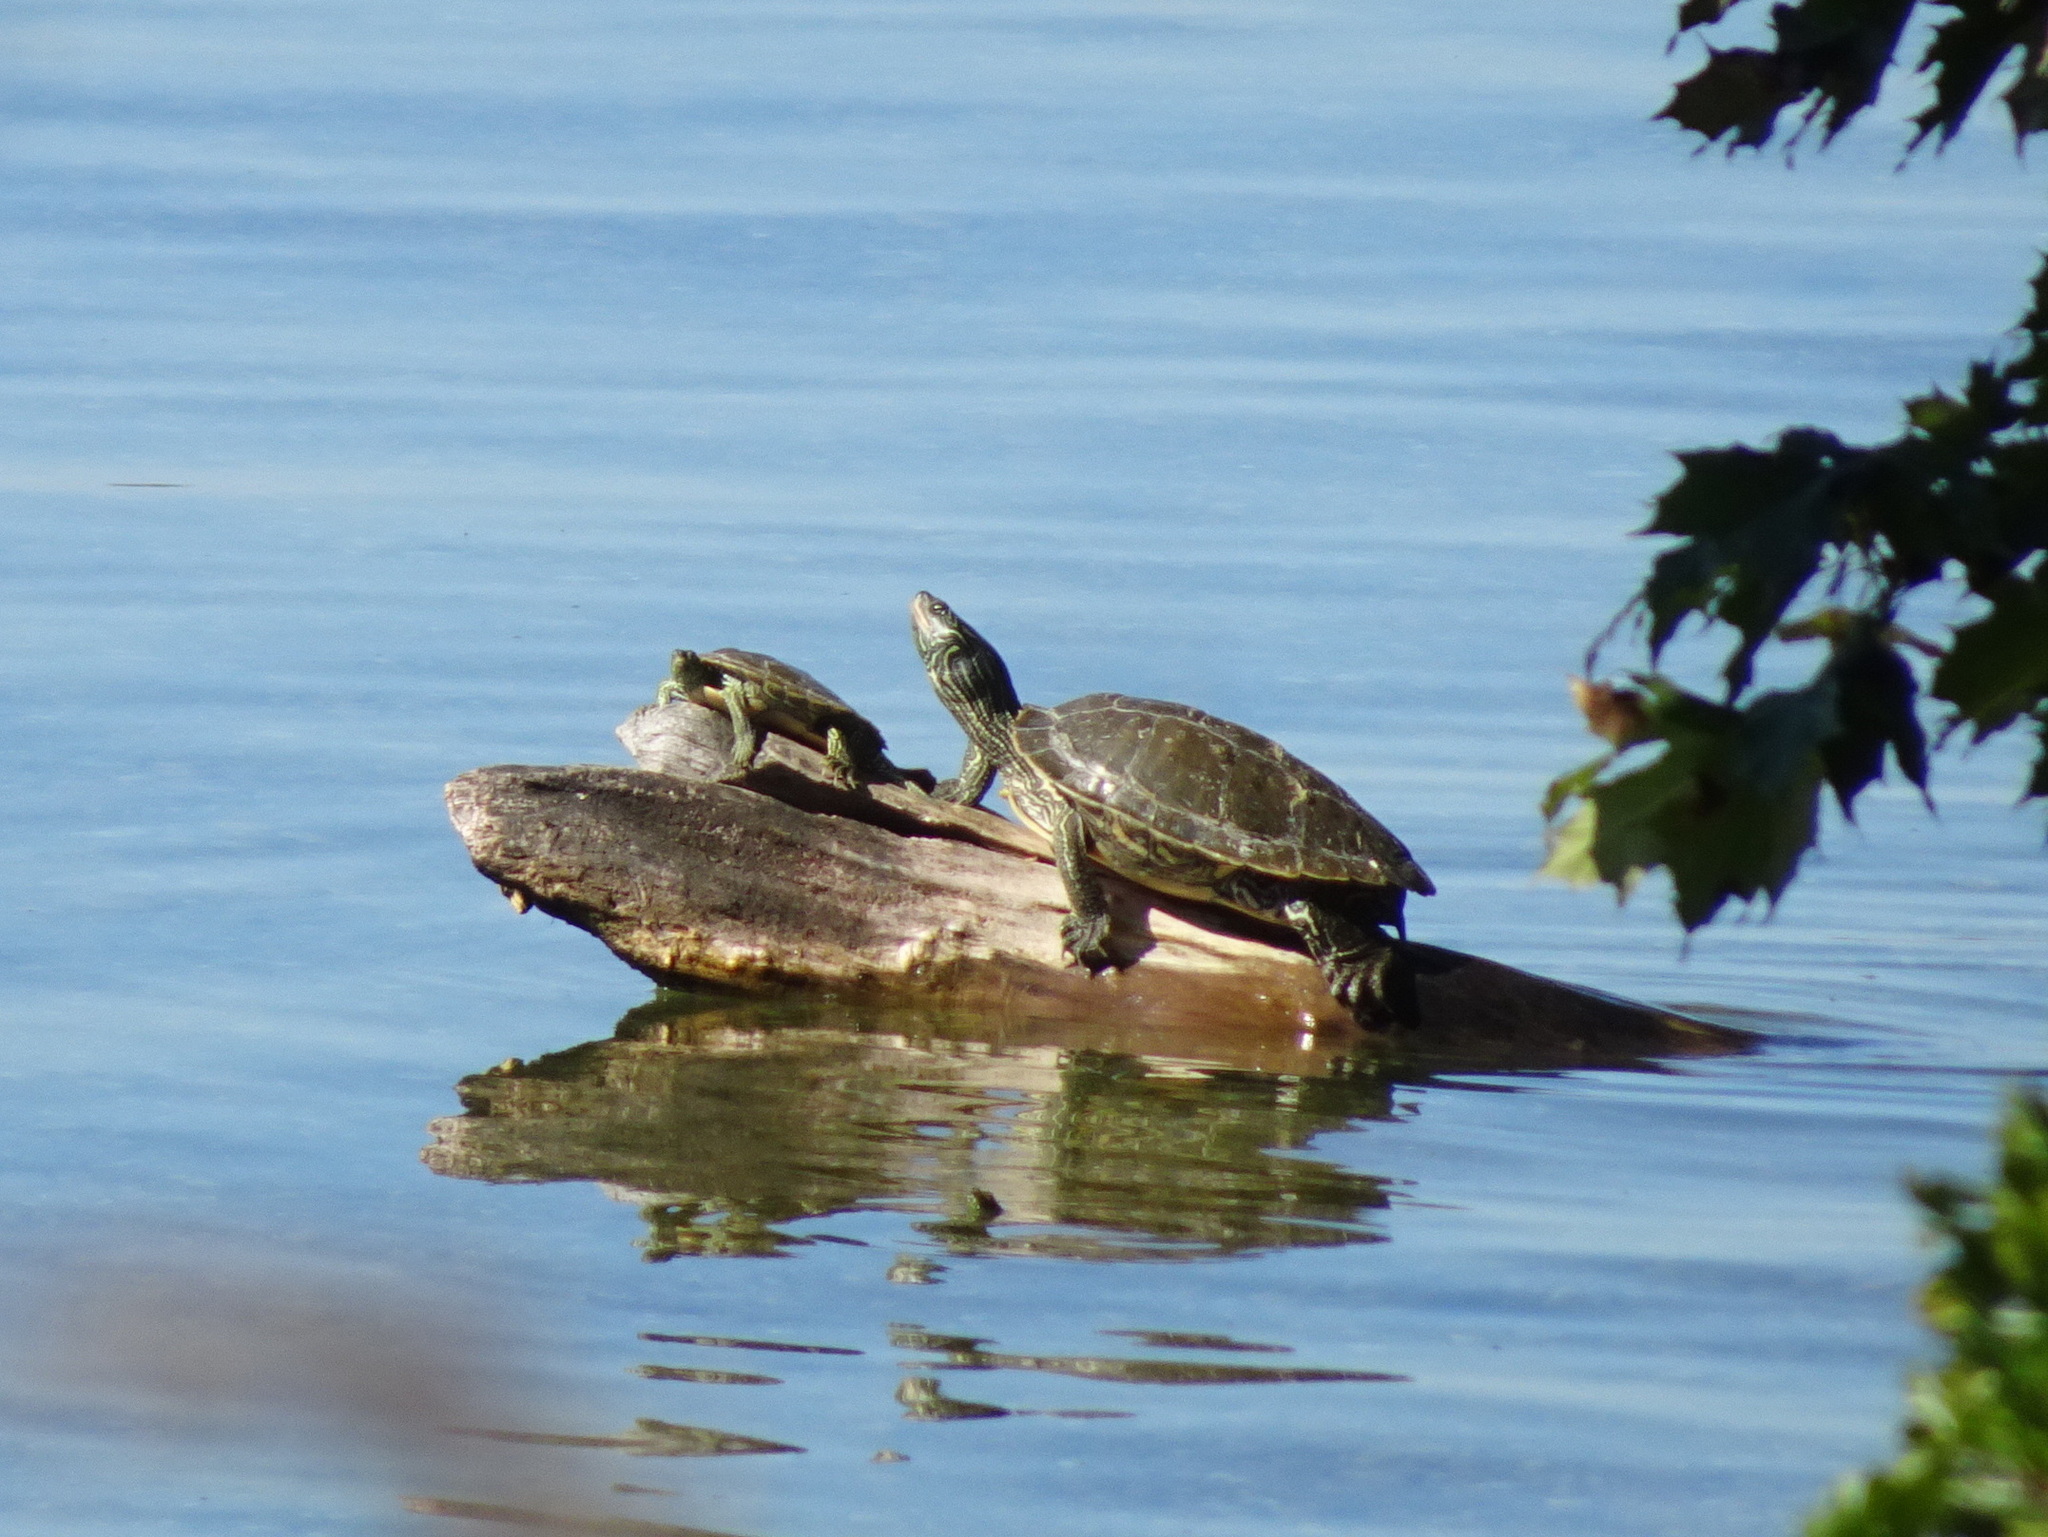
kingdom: Animalia
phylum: Chordata
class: Testudines
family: Emydidae
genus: Graptemys
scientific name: Graptemys geographica
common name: Common map turtle
